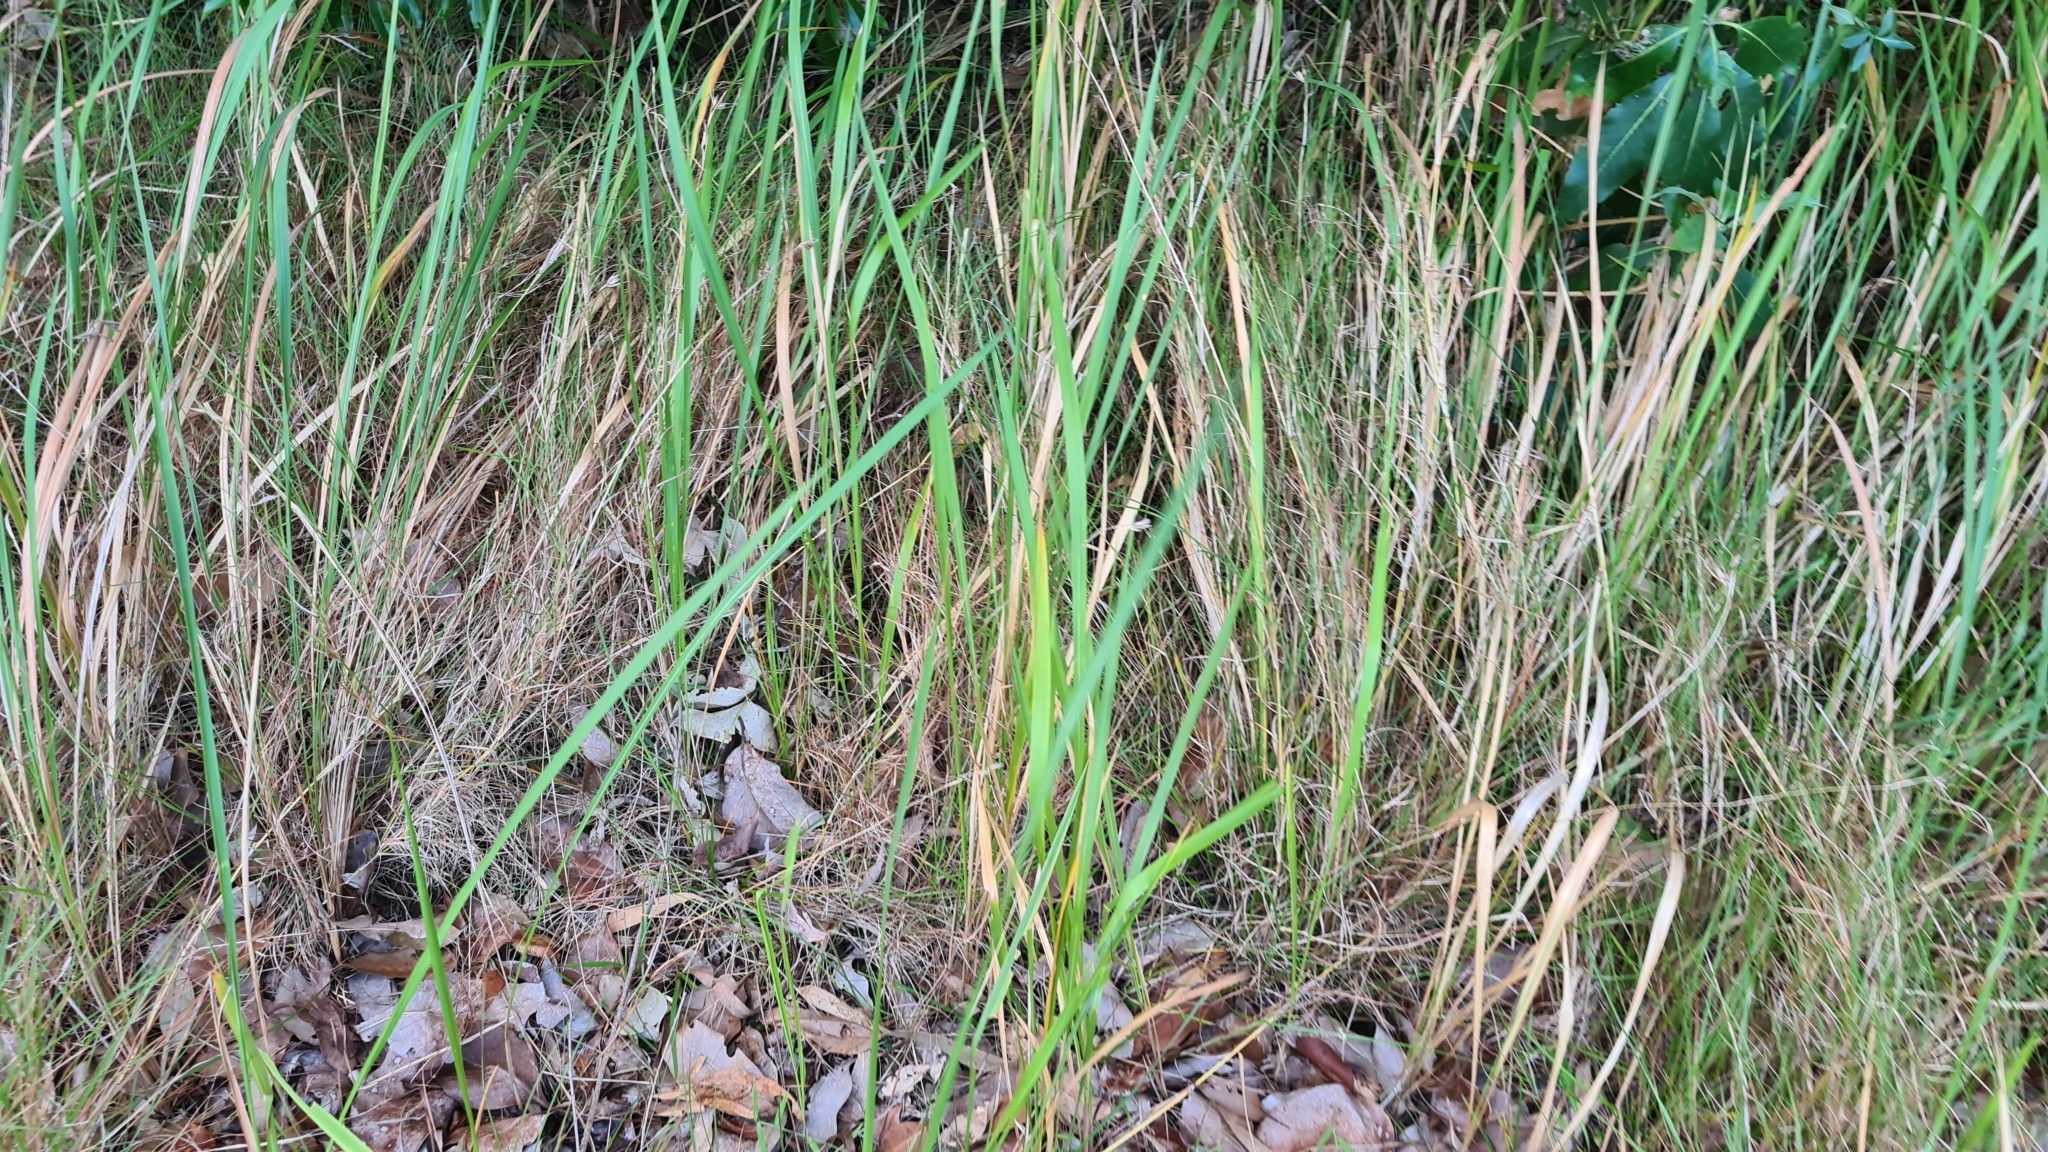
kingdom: Plantae
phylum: Tracheophyta
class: Liliopsida
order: Poales
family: Poaceae
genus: Imperata
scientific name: Imperata cylindrica
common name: Cogongrass
